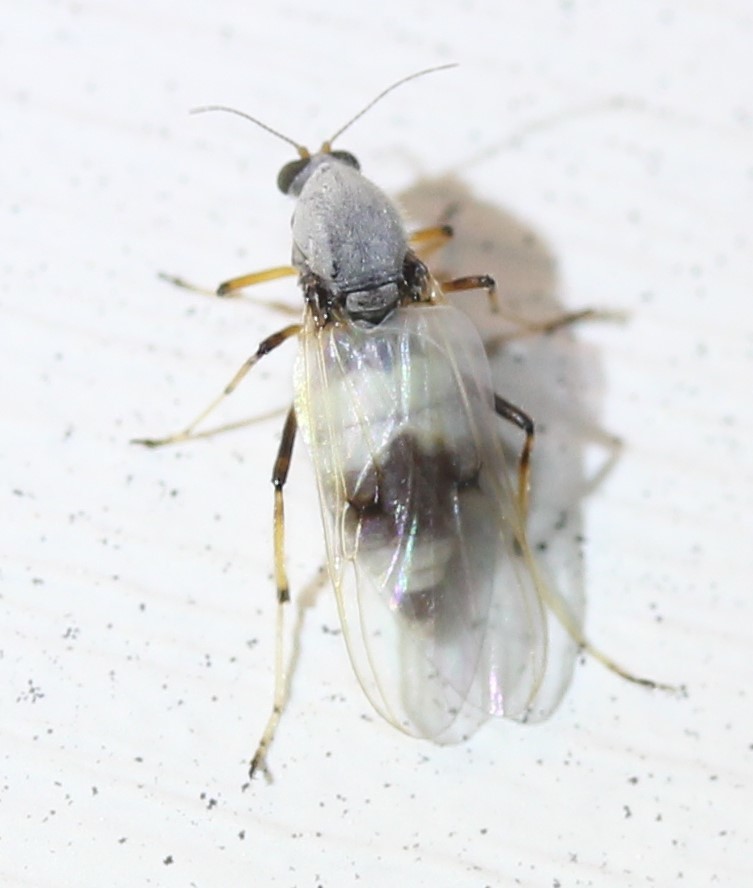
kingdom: Animalia
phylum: Arthropoda
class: Insecta
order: Diptera
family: Ceratopogonidae
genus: Jenkinshelea
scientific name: Jenkinshelea albaria
